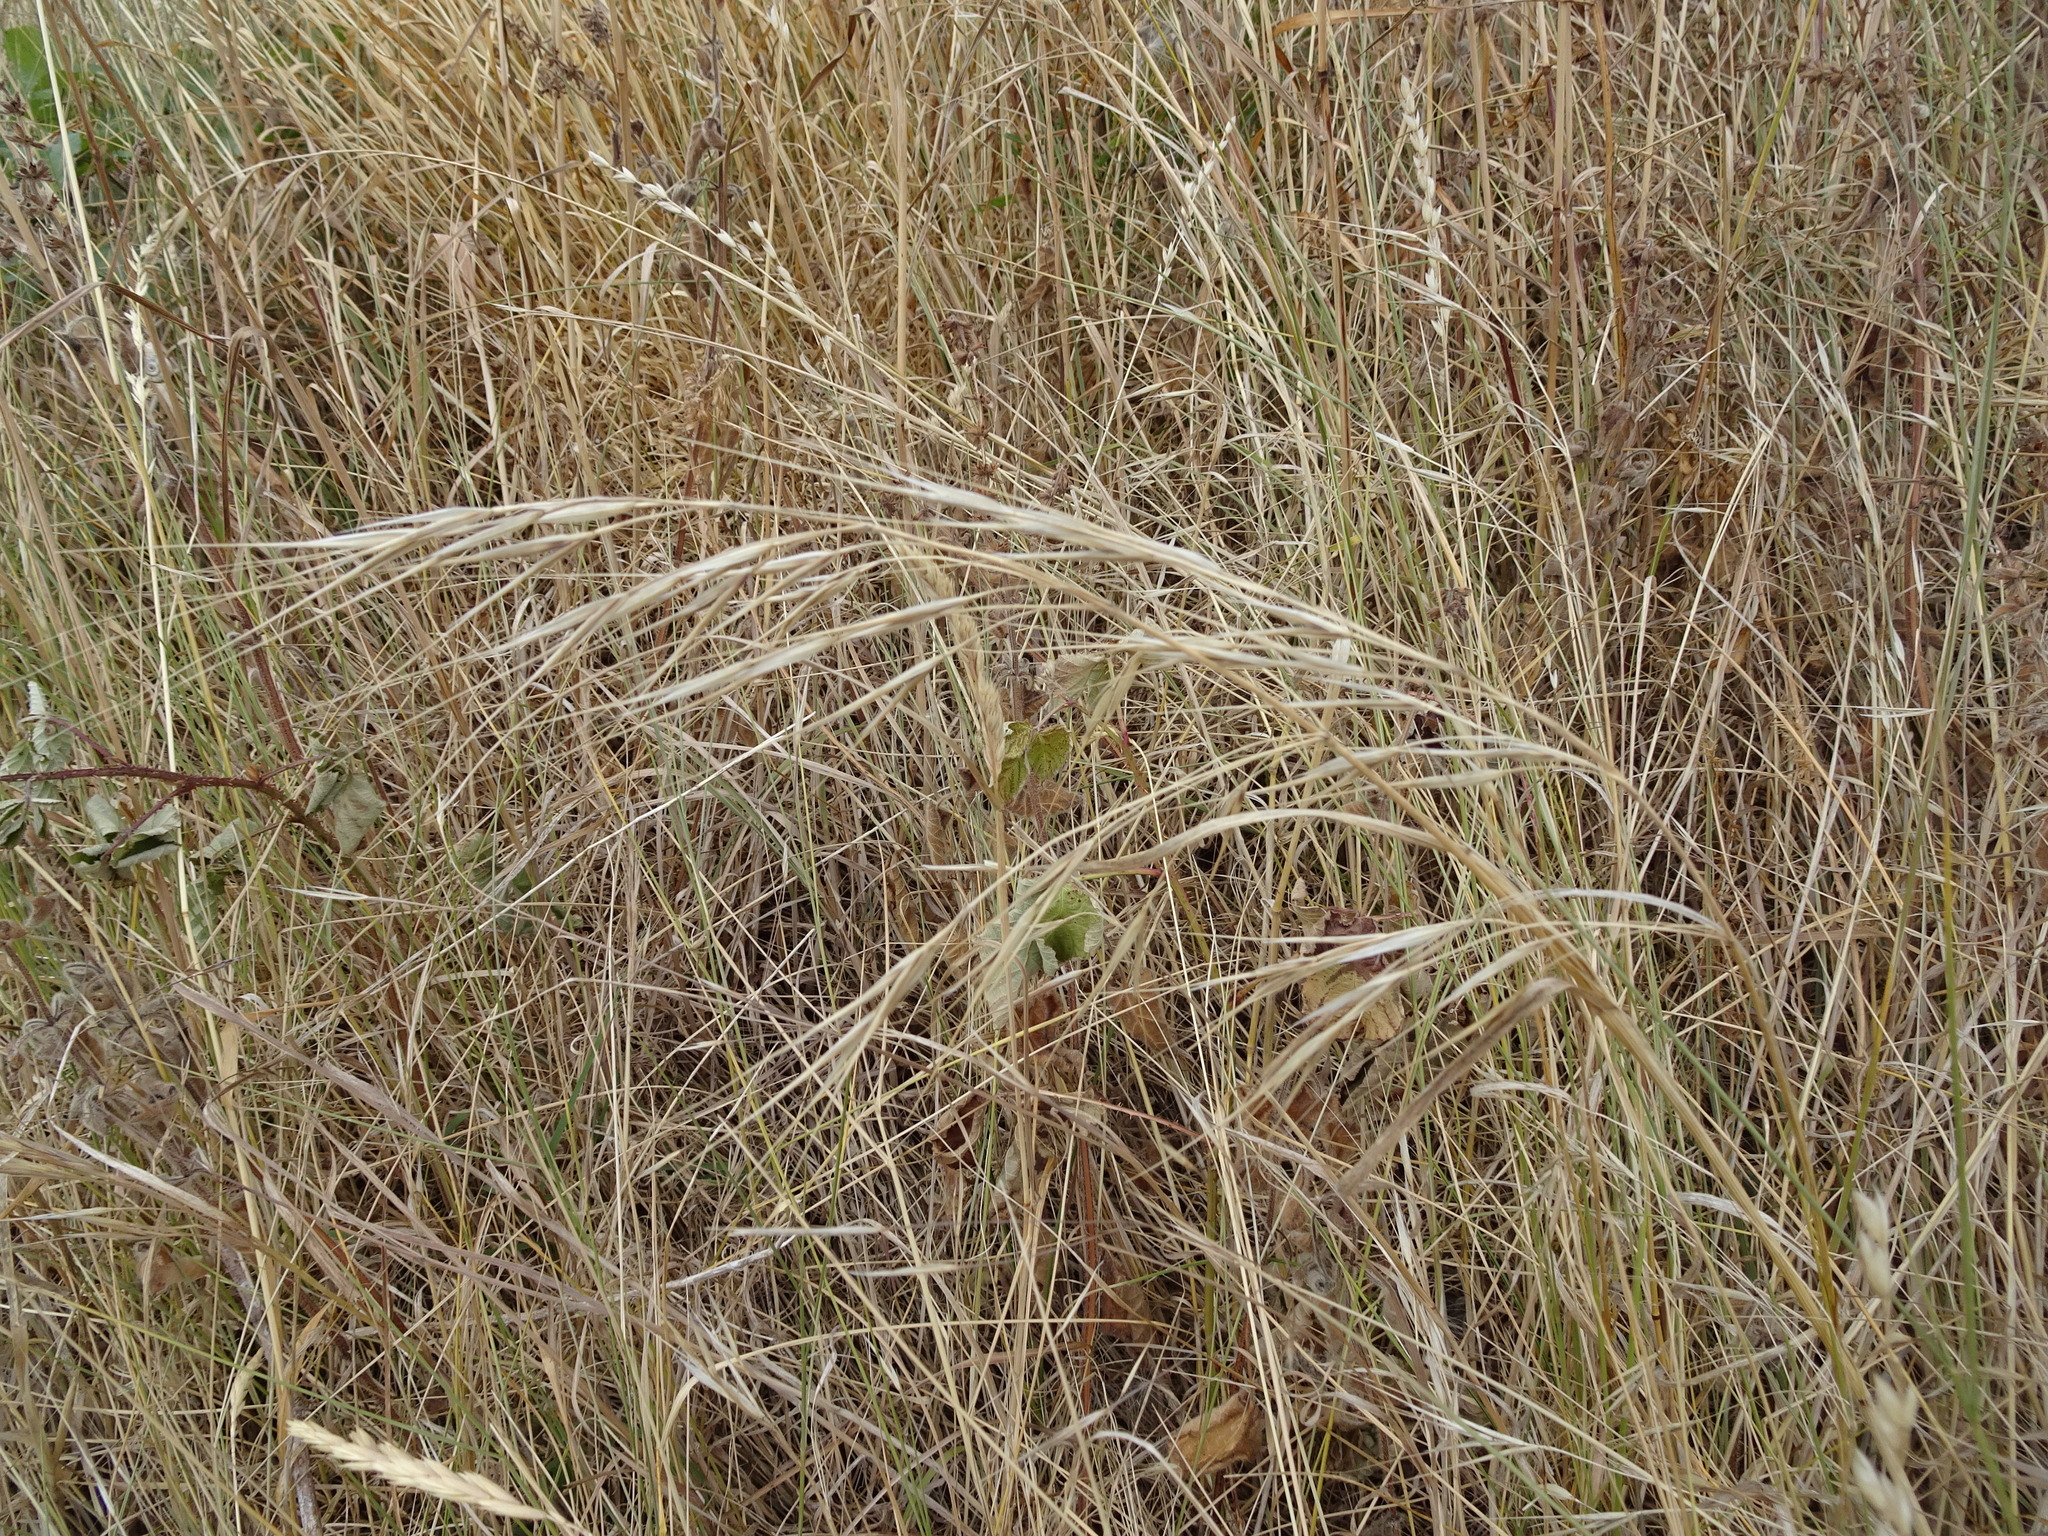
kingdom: Plantae
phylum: Tracheophyta
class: Liliopsida
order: Poales
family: Poaceae
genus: Bromus
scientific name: Bromus sterilis
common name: Poverty brome
